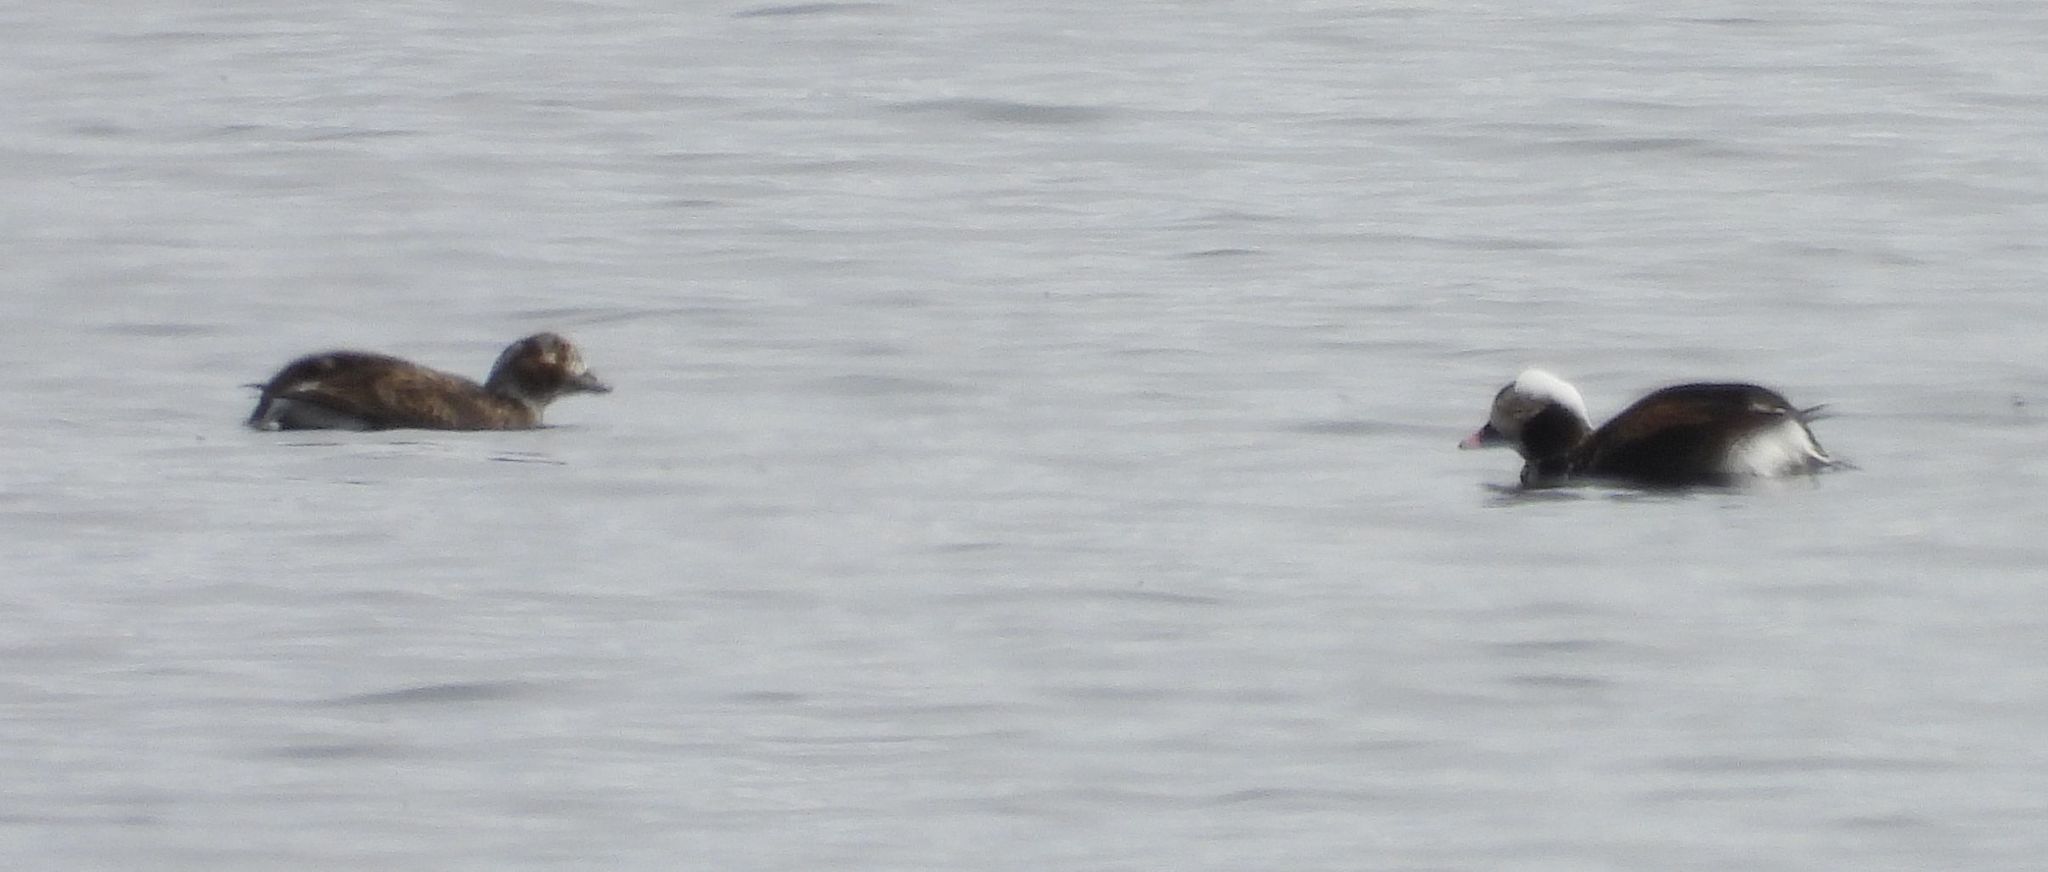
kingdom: Animalia
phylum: Chordata
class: Aves
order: Anseriformes
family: Anatidae
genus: Clangula
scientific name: Clangula hyemalis
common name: Long-tailed duck
